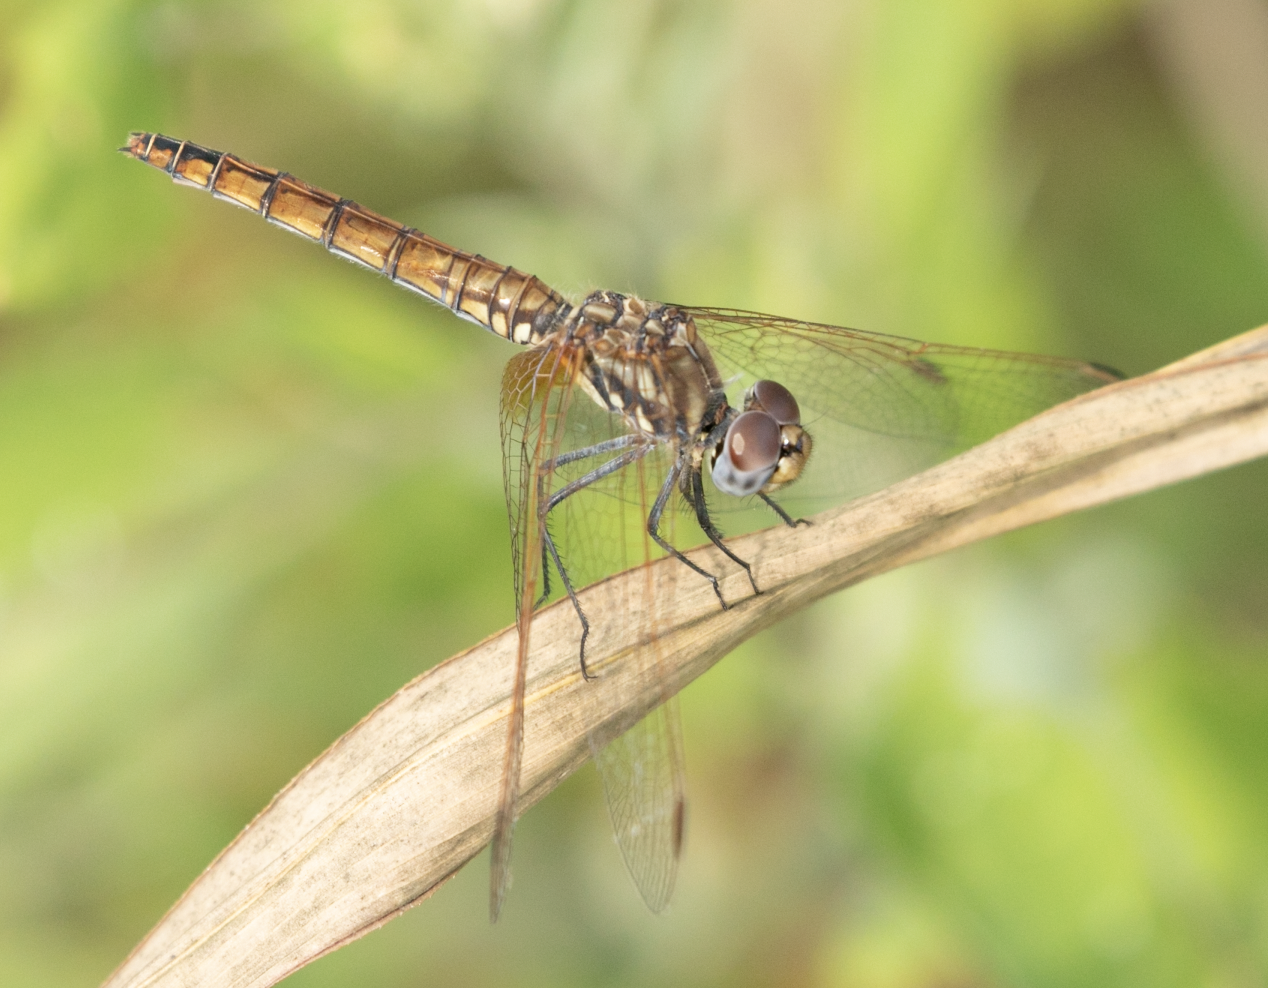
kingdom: Animalia
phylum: Arthropoda
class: Insecta
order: Odonata
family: Libellulidae
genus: Trithemis
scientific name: Trithemis annulata
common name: Violet dropwing
